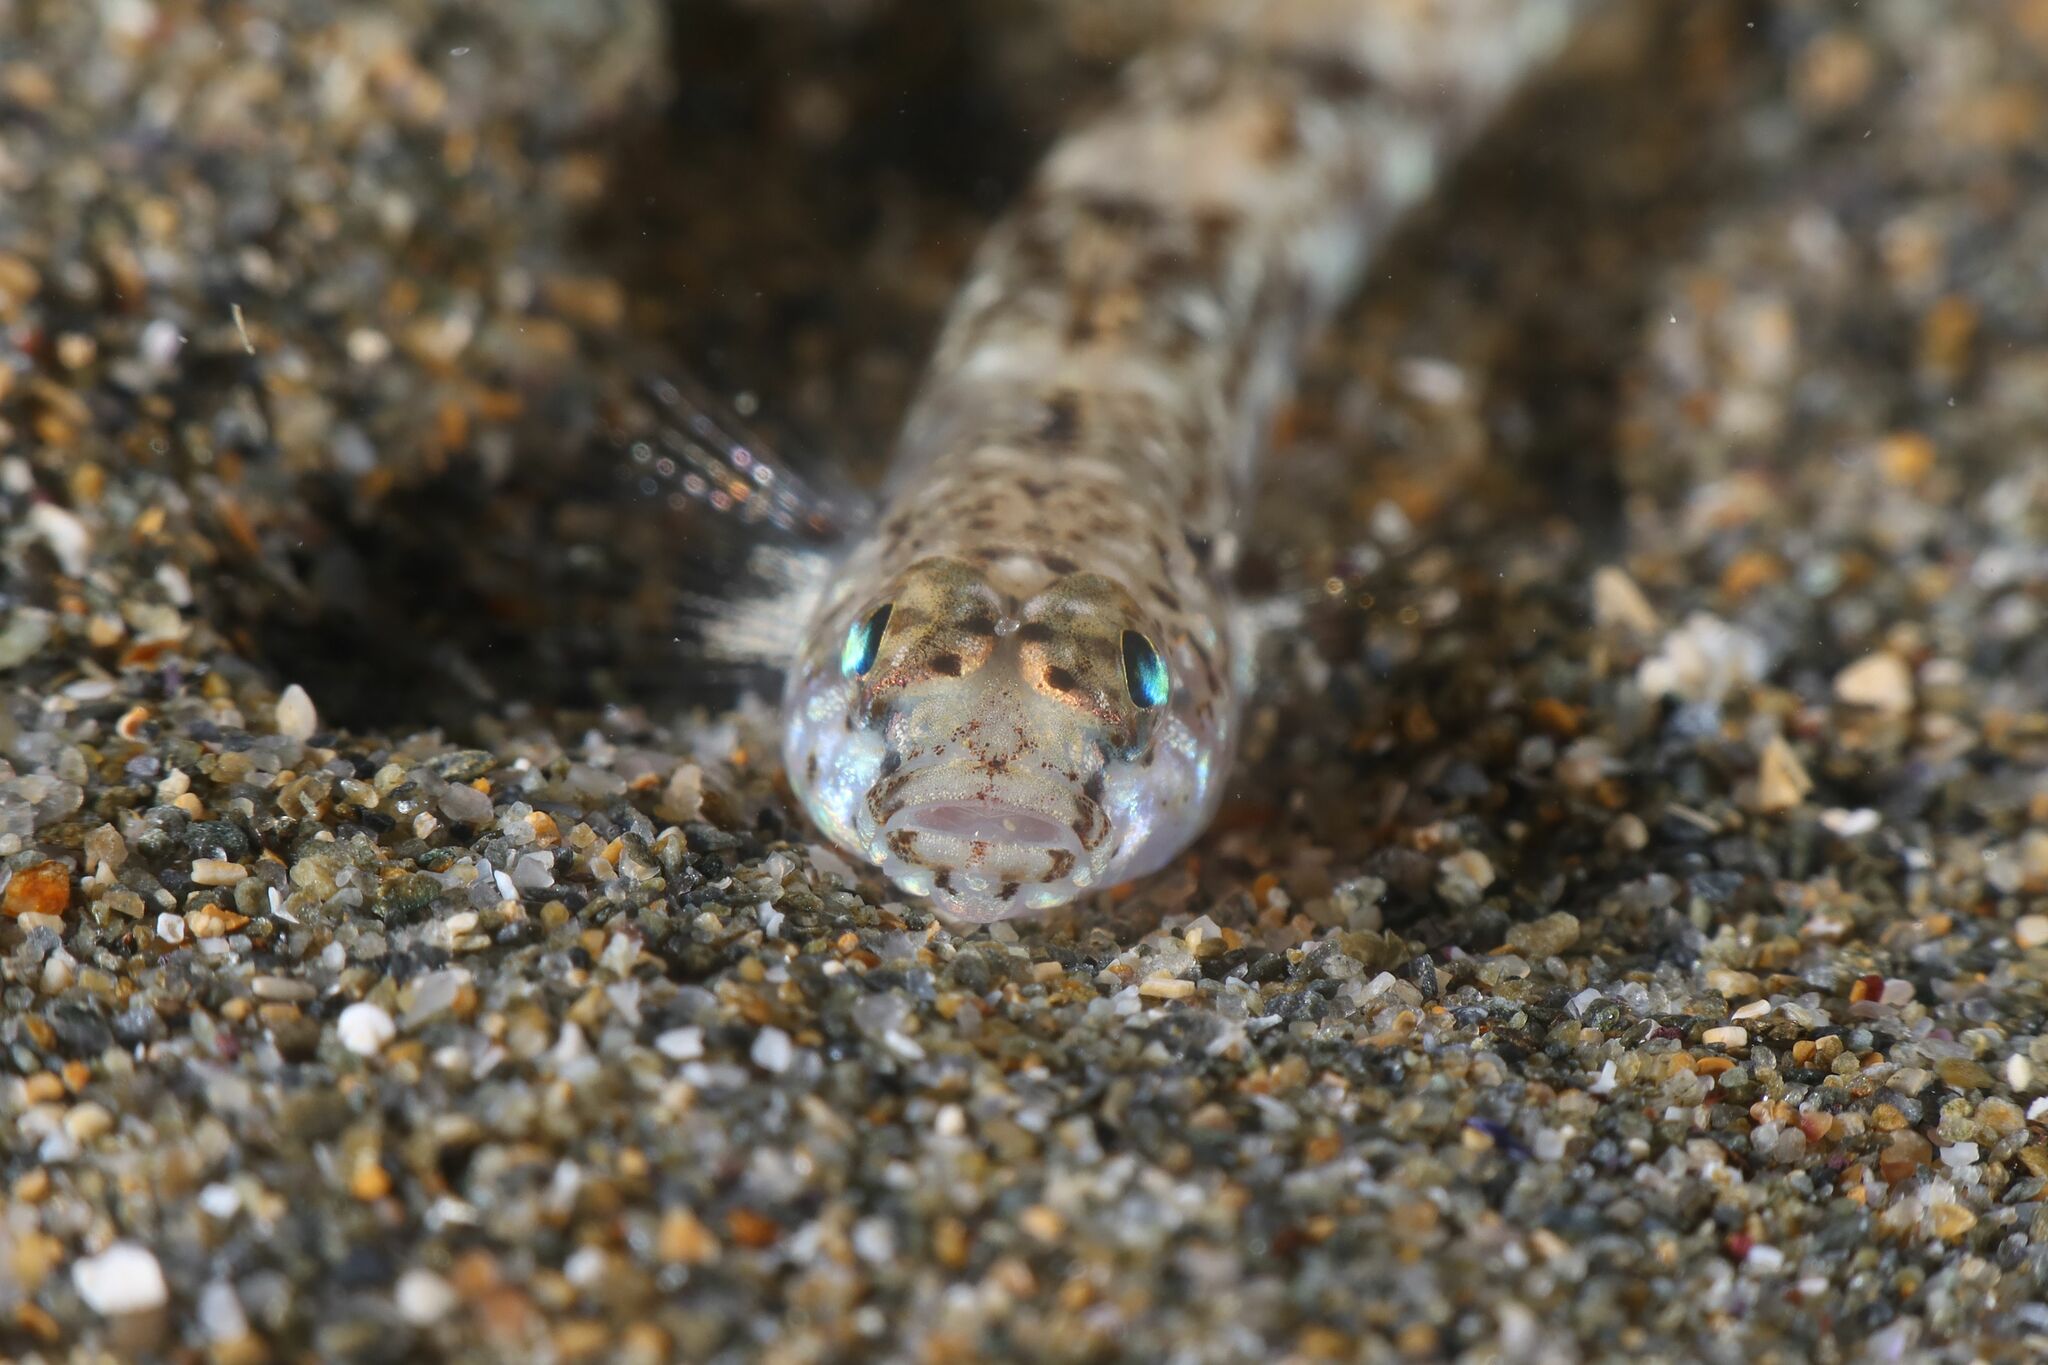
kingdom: Animalia
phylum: Chordata
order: Perciformes
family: Gobiidae
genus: Pomatoschistus
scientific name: Pomatoschistus marmoratus
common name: Marbled goby
